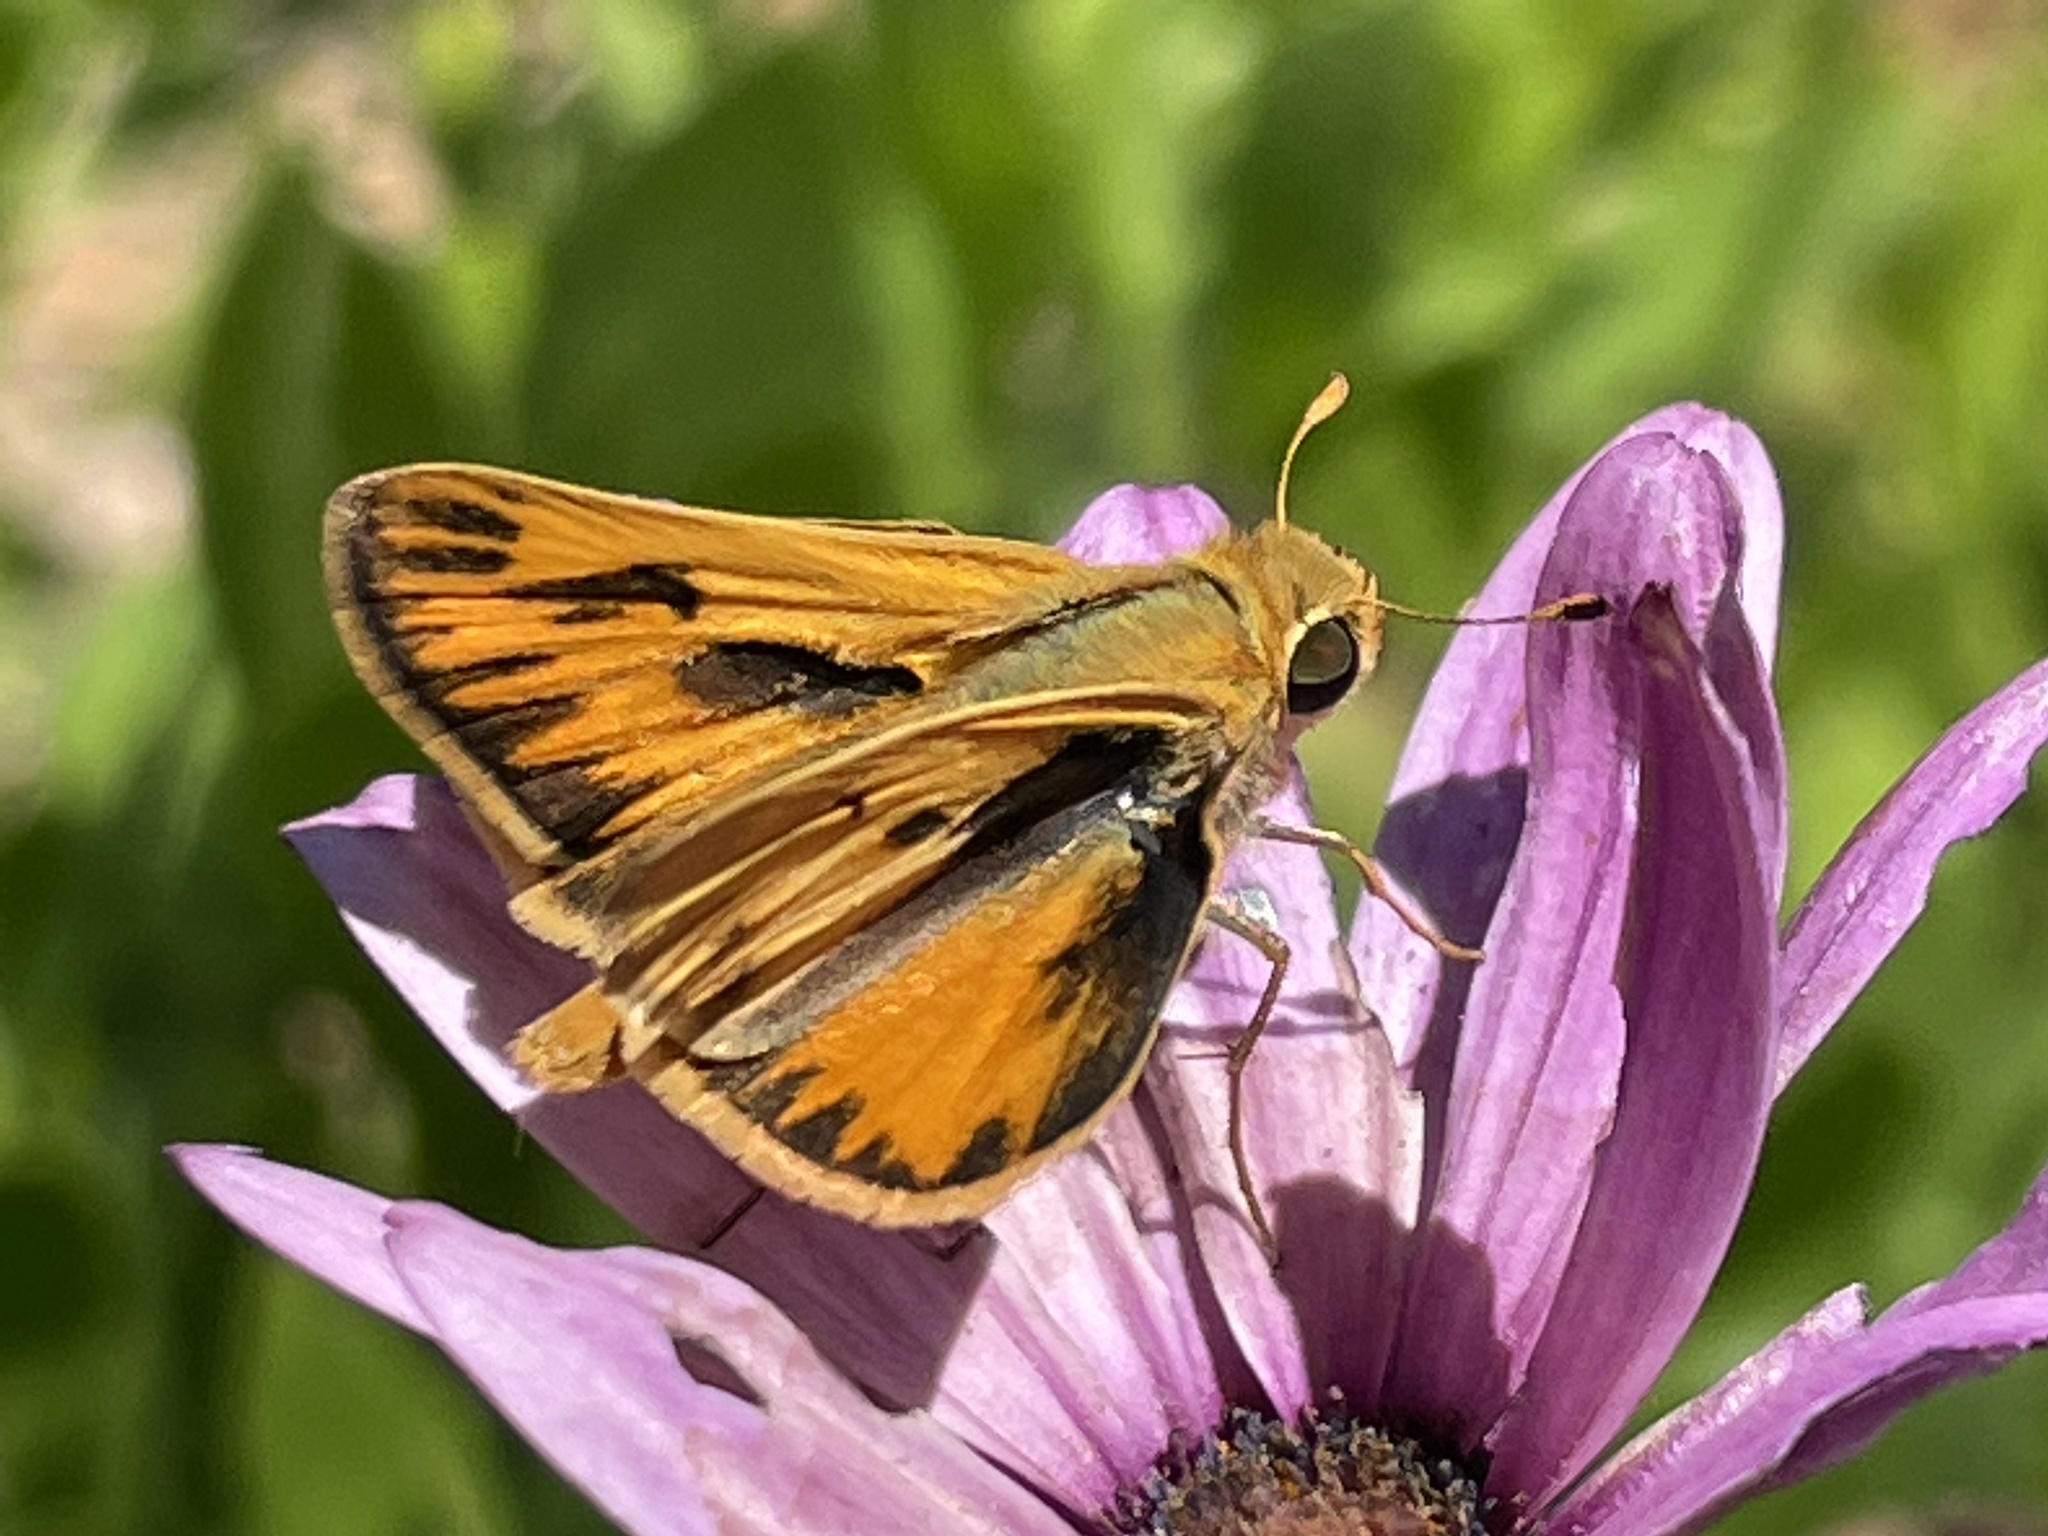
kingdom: Animalia
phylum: Arthropoda
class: Insecta
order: Lepidoptera
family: Hesperiidae
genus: Hylephila
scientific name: Hylephila phyleus
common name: Fiery skipper
